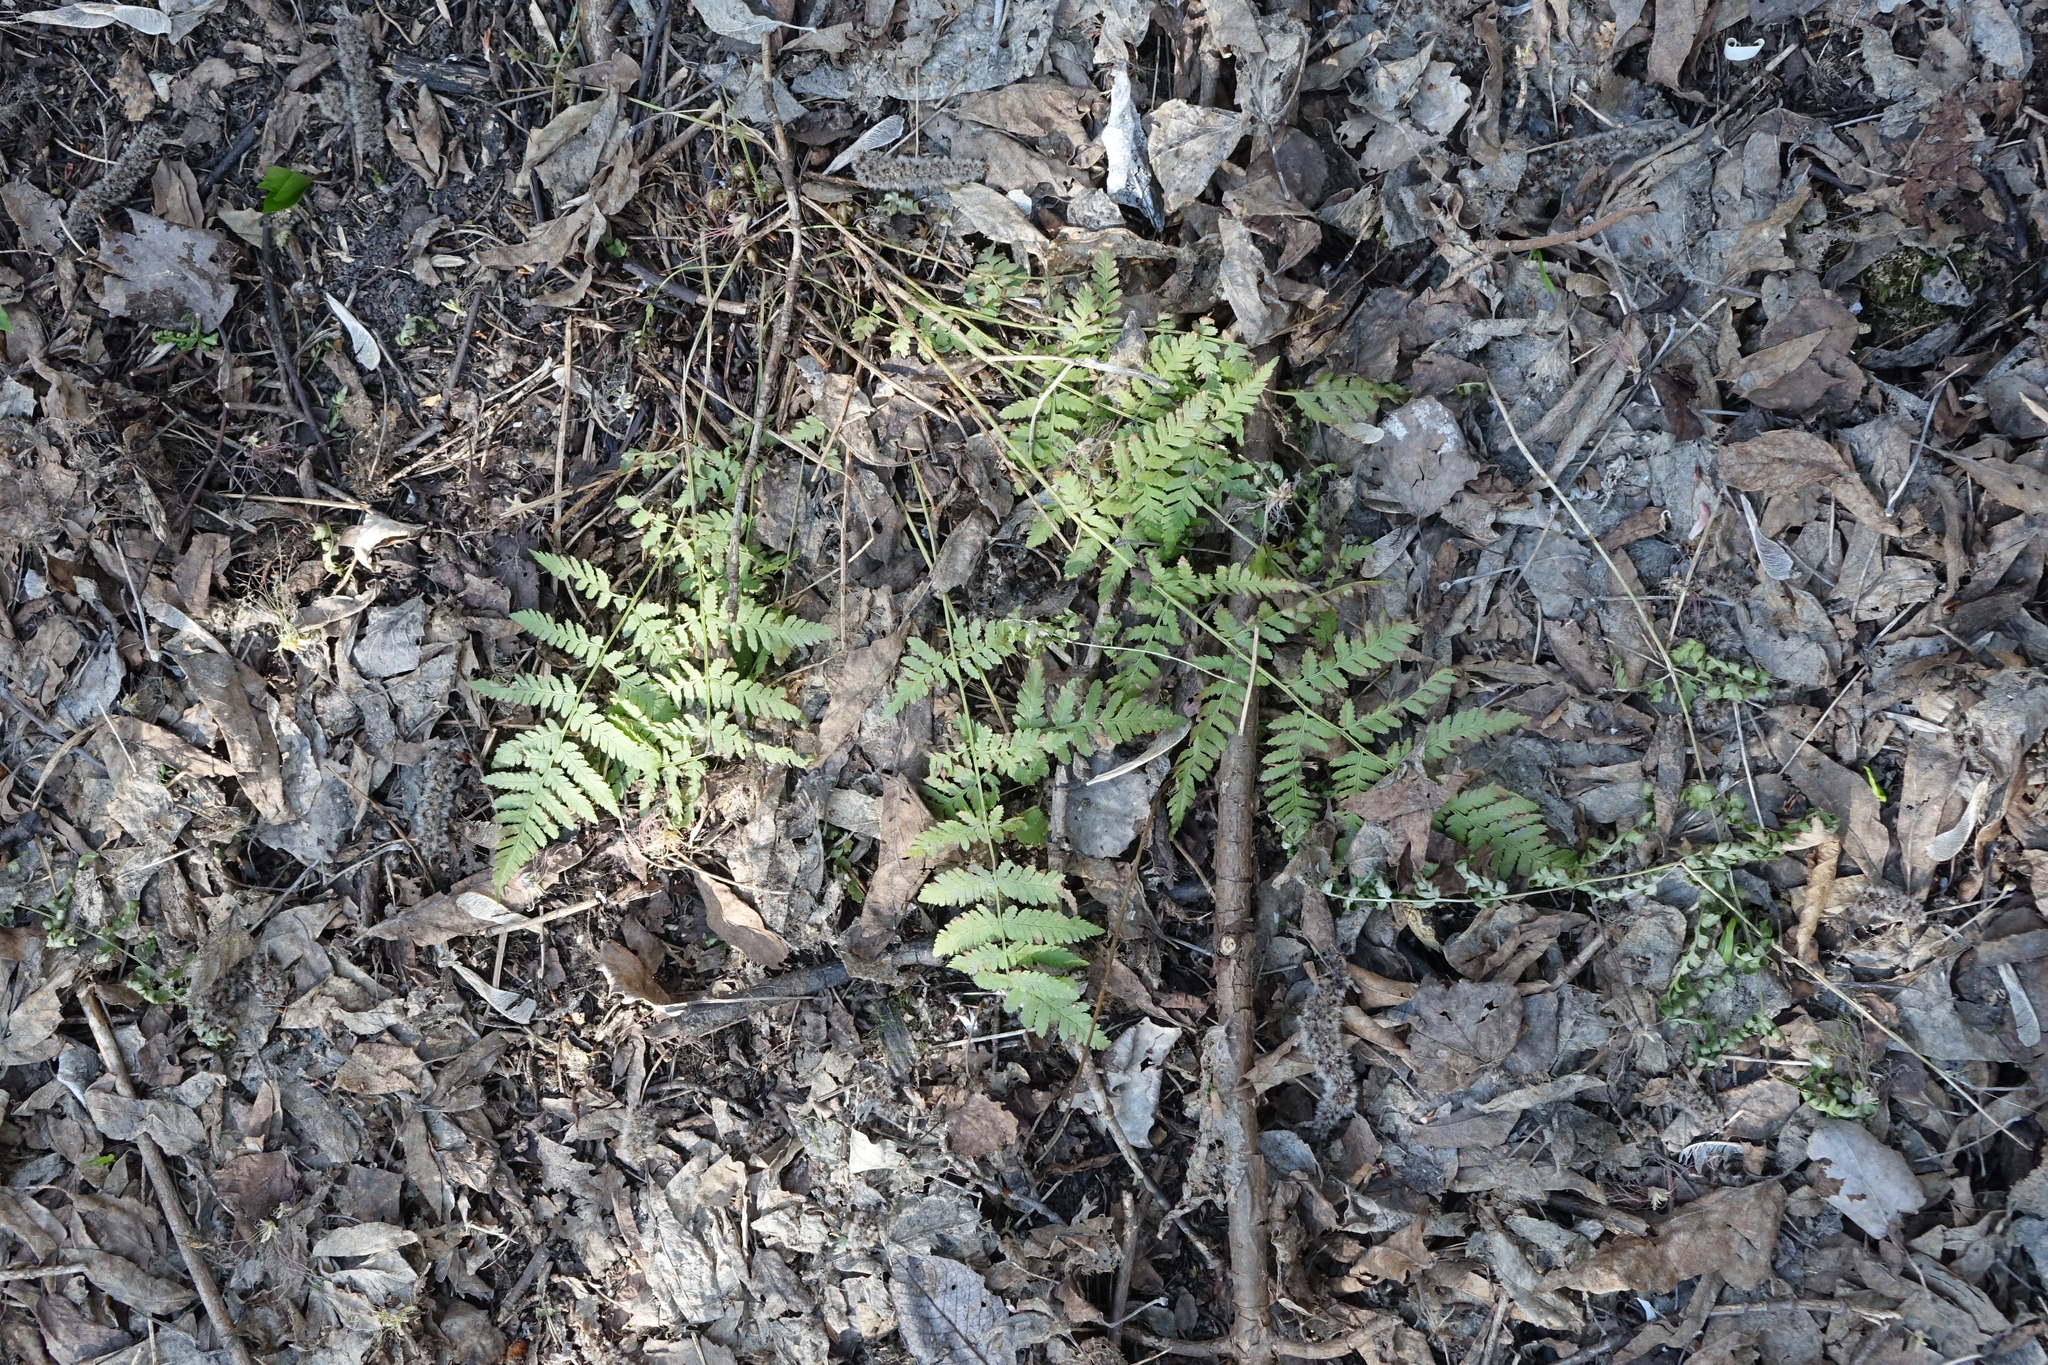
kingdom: Plantae
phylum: Tracheophyta
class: Polypodiopsida
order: Polypodiales
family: Dryopteridaceae
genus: Dryopteris
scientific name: Dryopteris carthusiana
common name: Narrow buckler-fern
